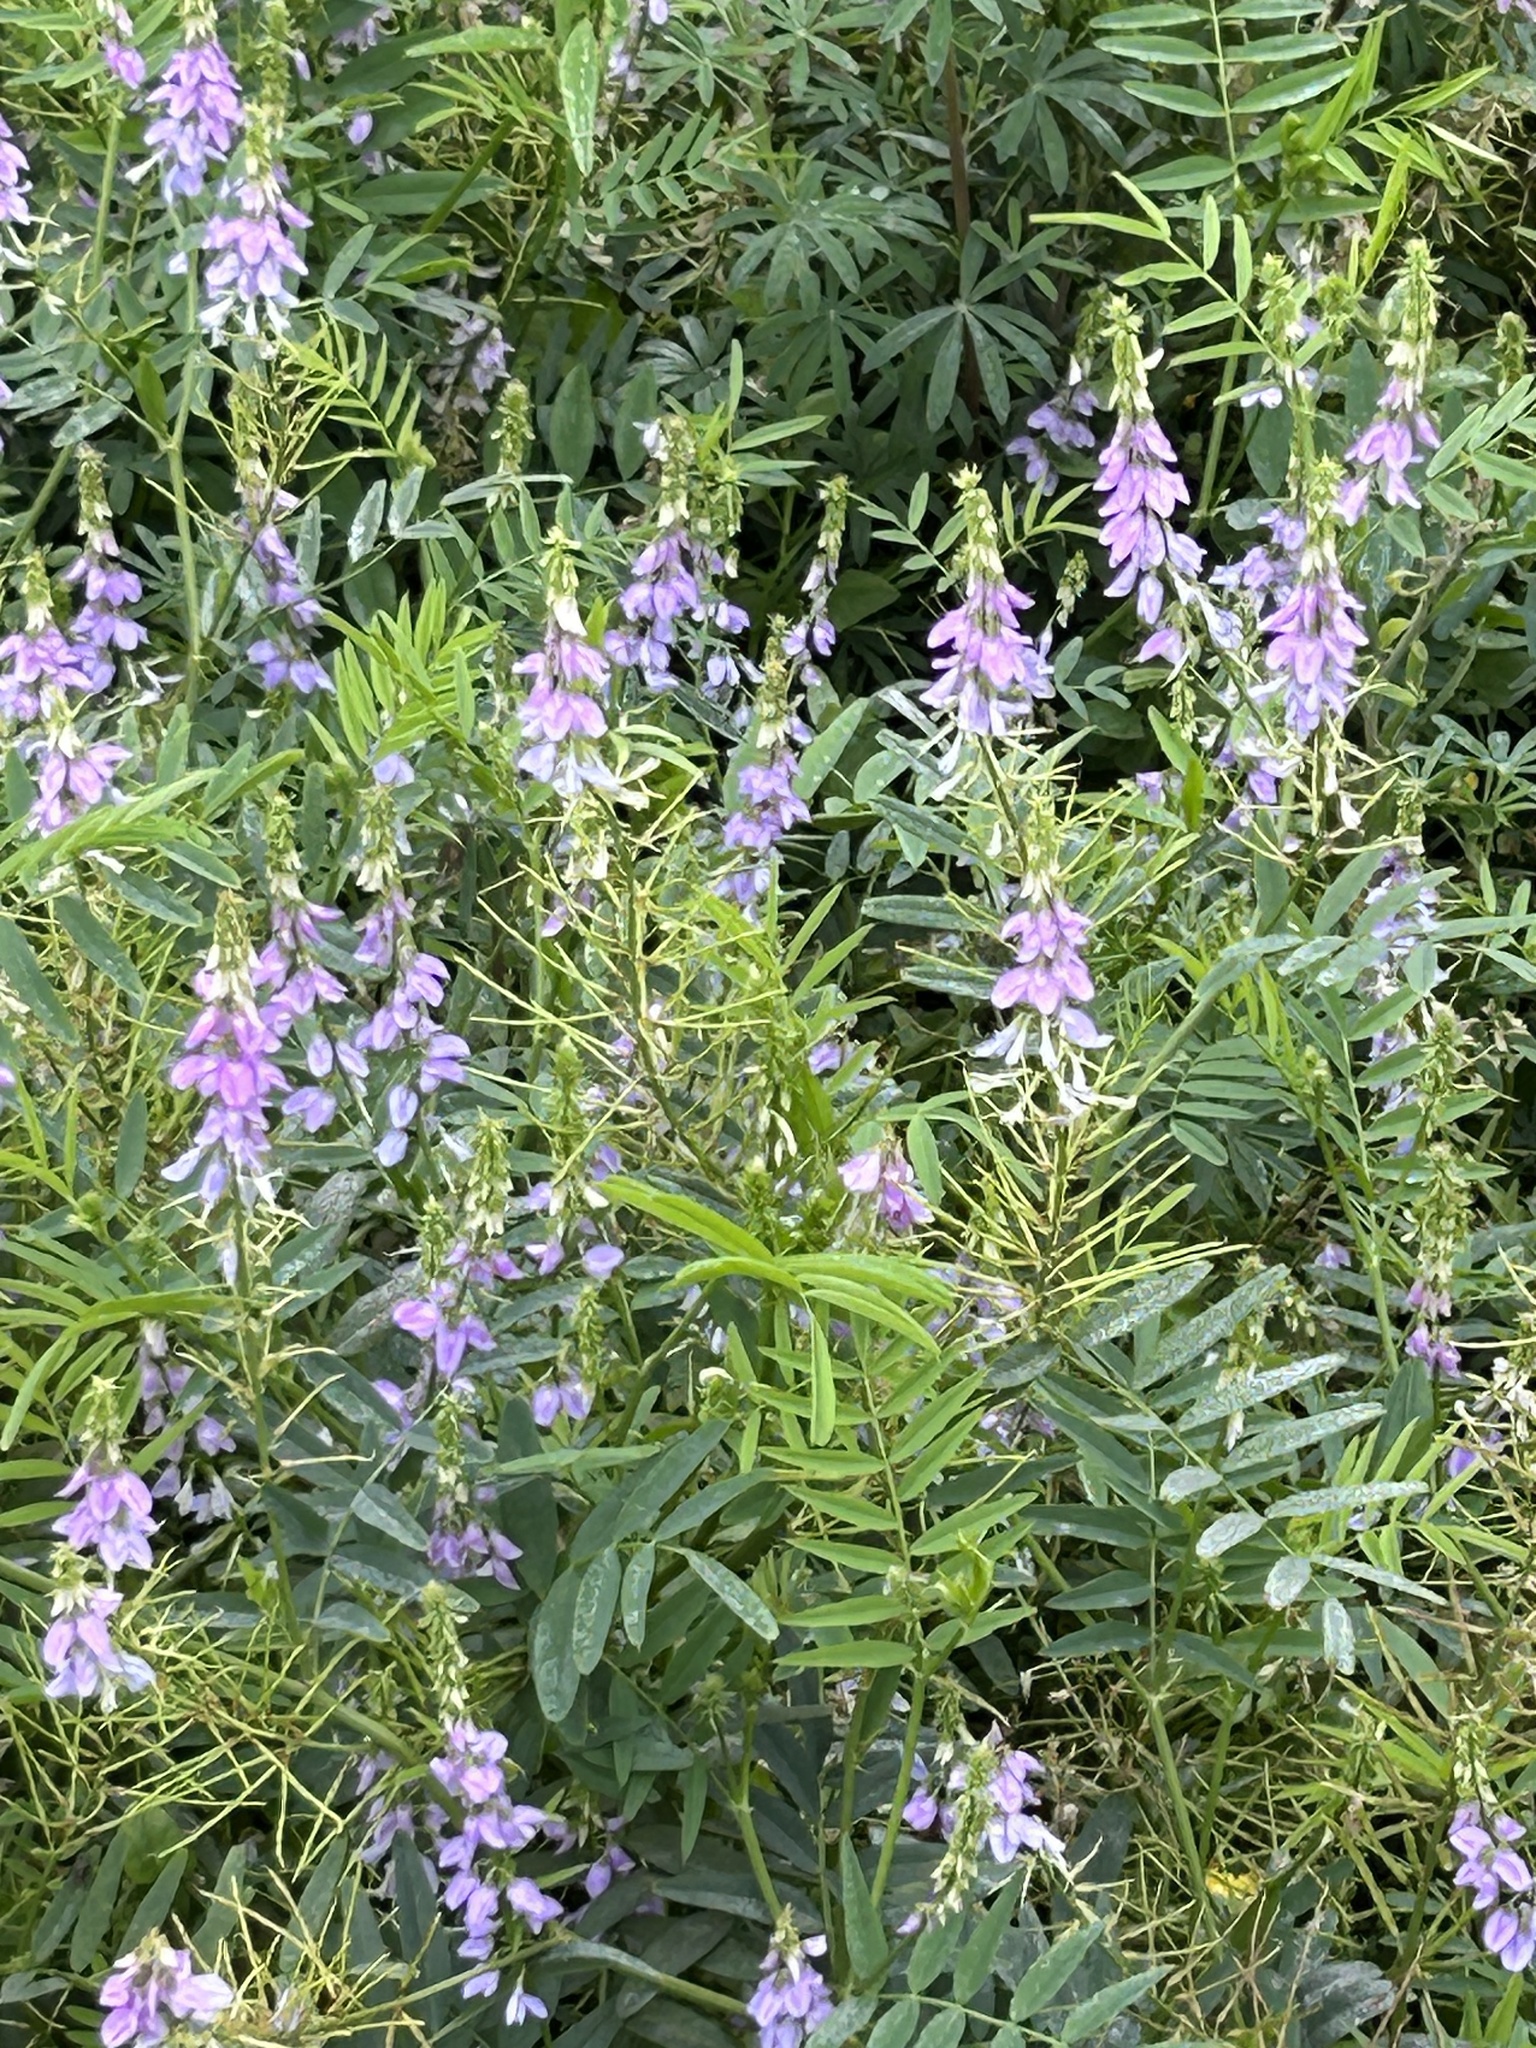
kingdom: Plantae
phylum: Tracheophyta
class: Magnoliopsida
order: Fabales
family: Fabaceae
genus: Galega
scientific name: Galega officinalis
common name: Goat's-rue
